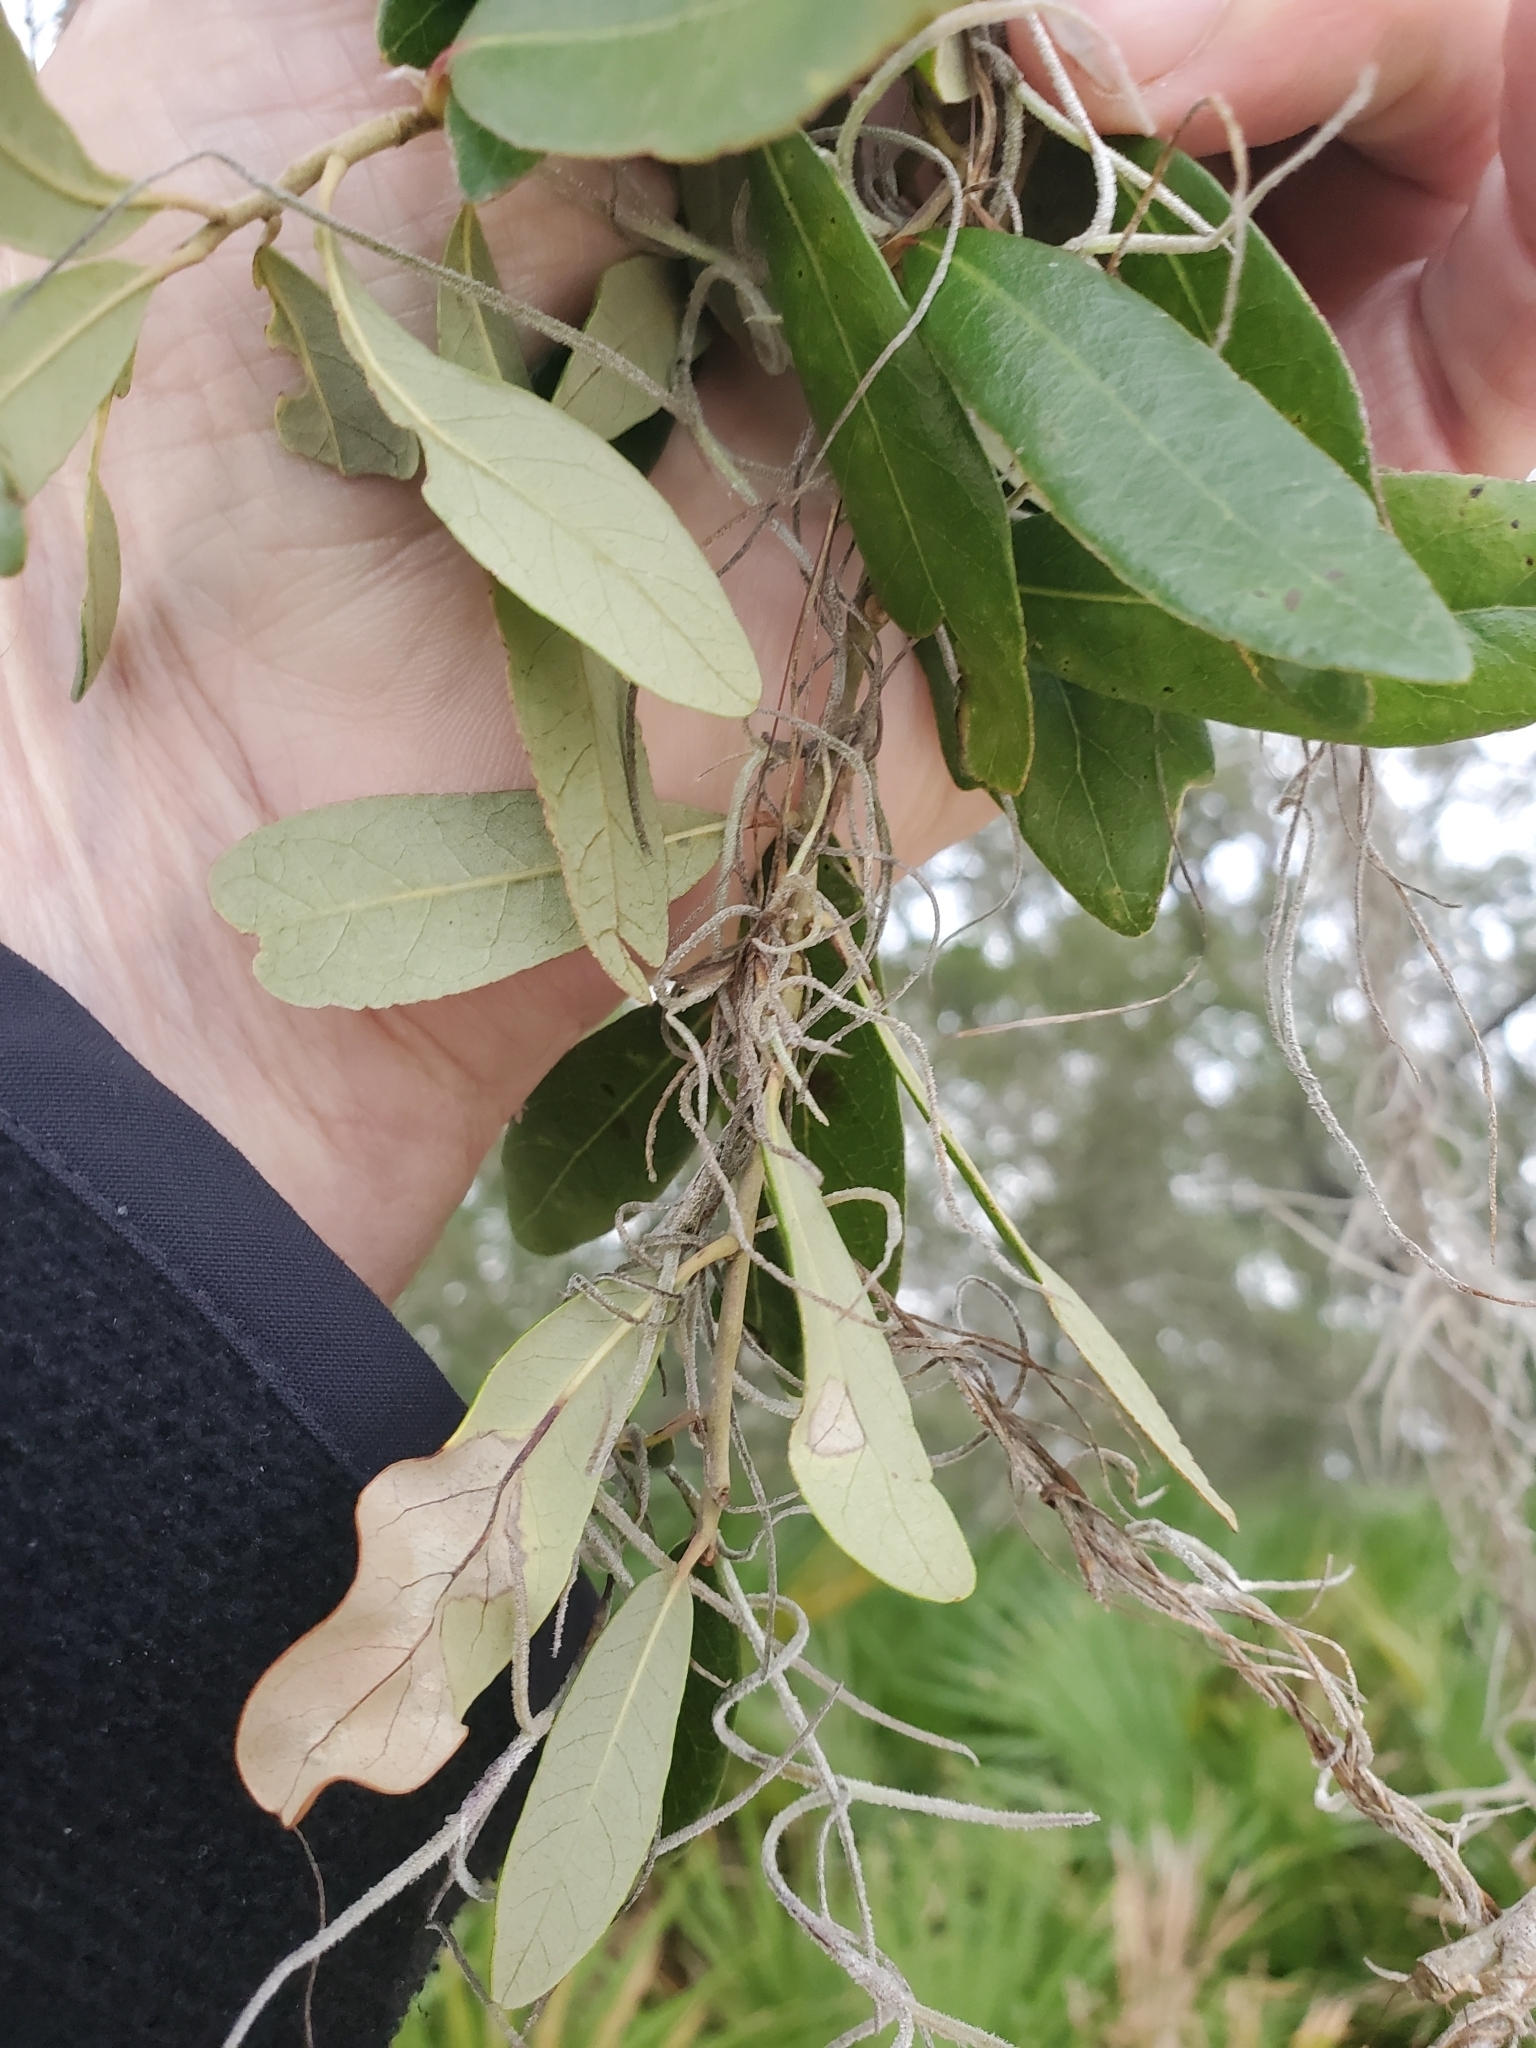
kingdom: Plantae
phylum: Tracheophyta
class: Liliopsida
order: Poales
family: Bromeliaceae
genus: Tillandsia
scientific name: Tillandsia usneoides
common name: Spanish moss
